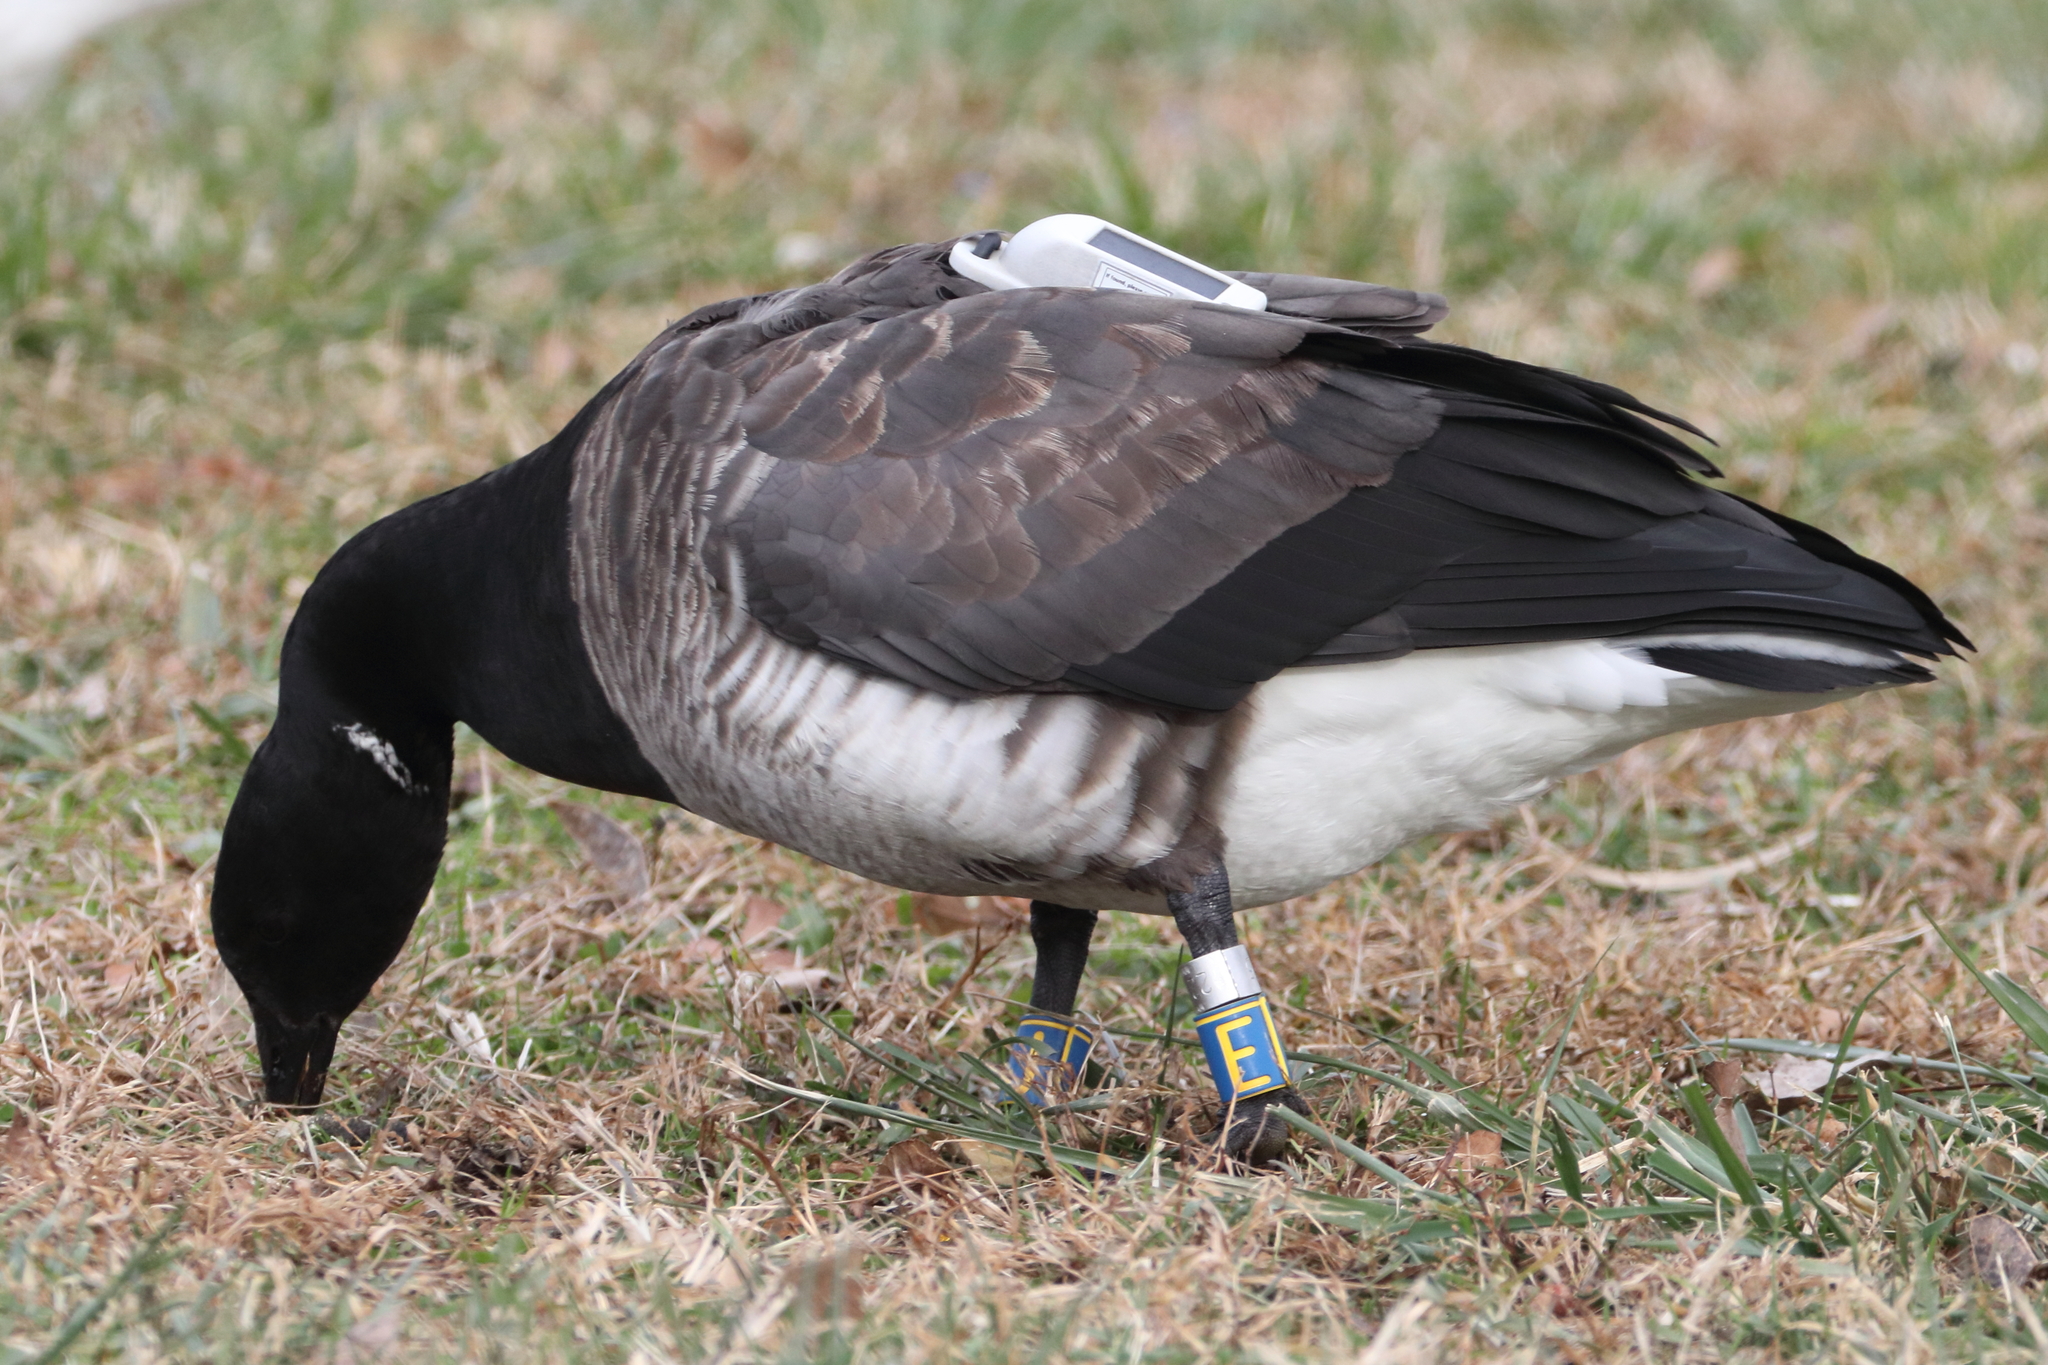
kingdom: Animalia
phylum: Chordata
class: Aves
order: Anseriformes
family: Anatidae
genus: Branta
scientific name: Branta bernicla
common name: Brant goose
